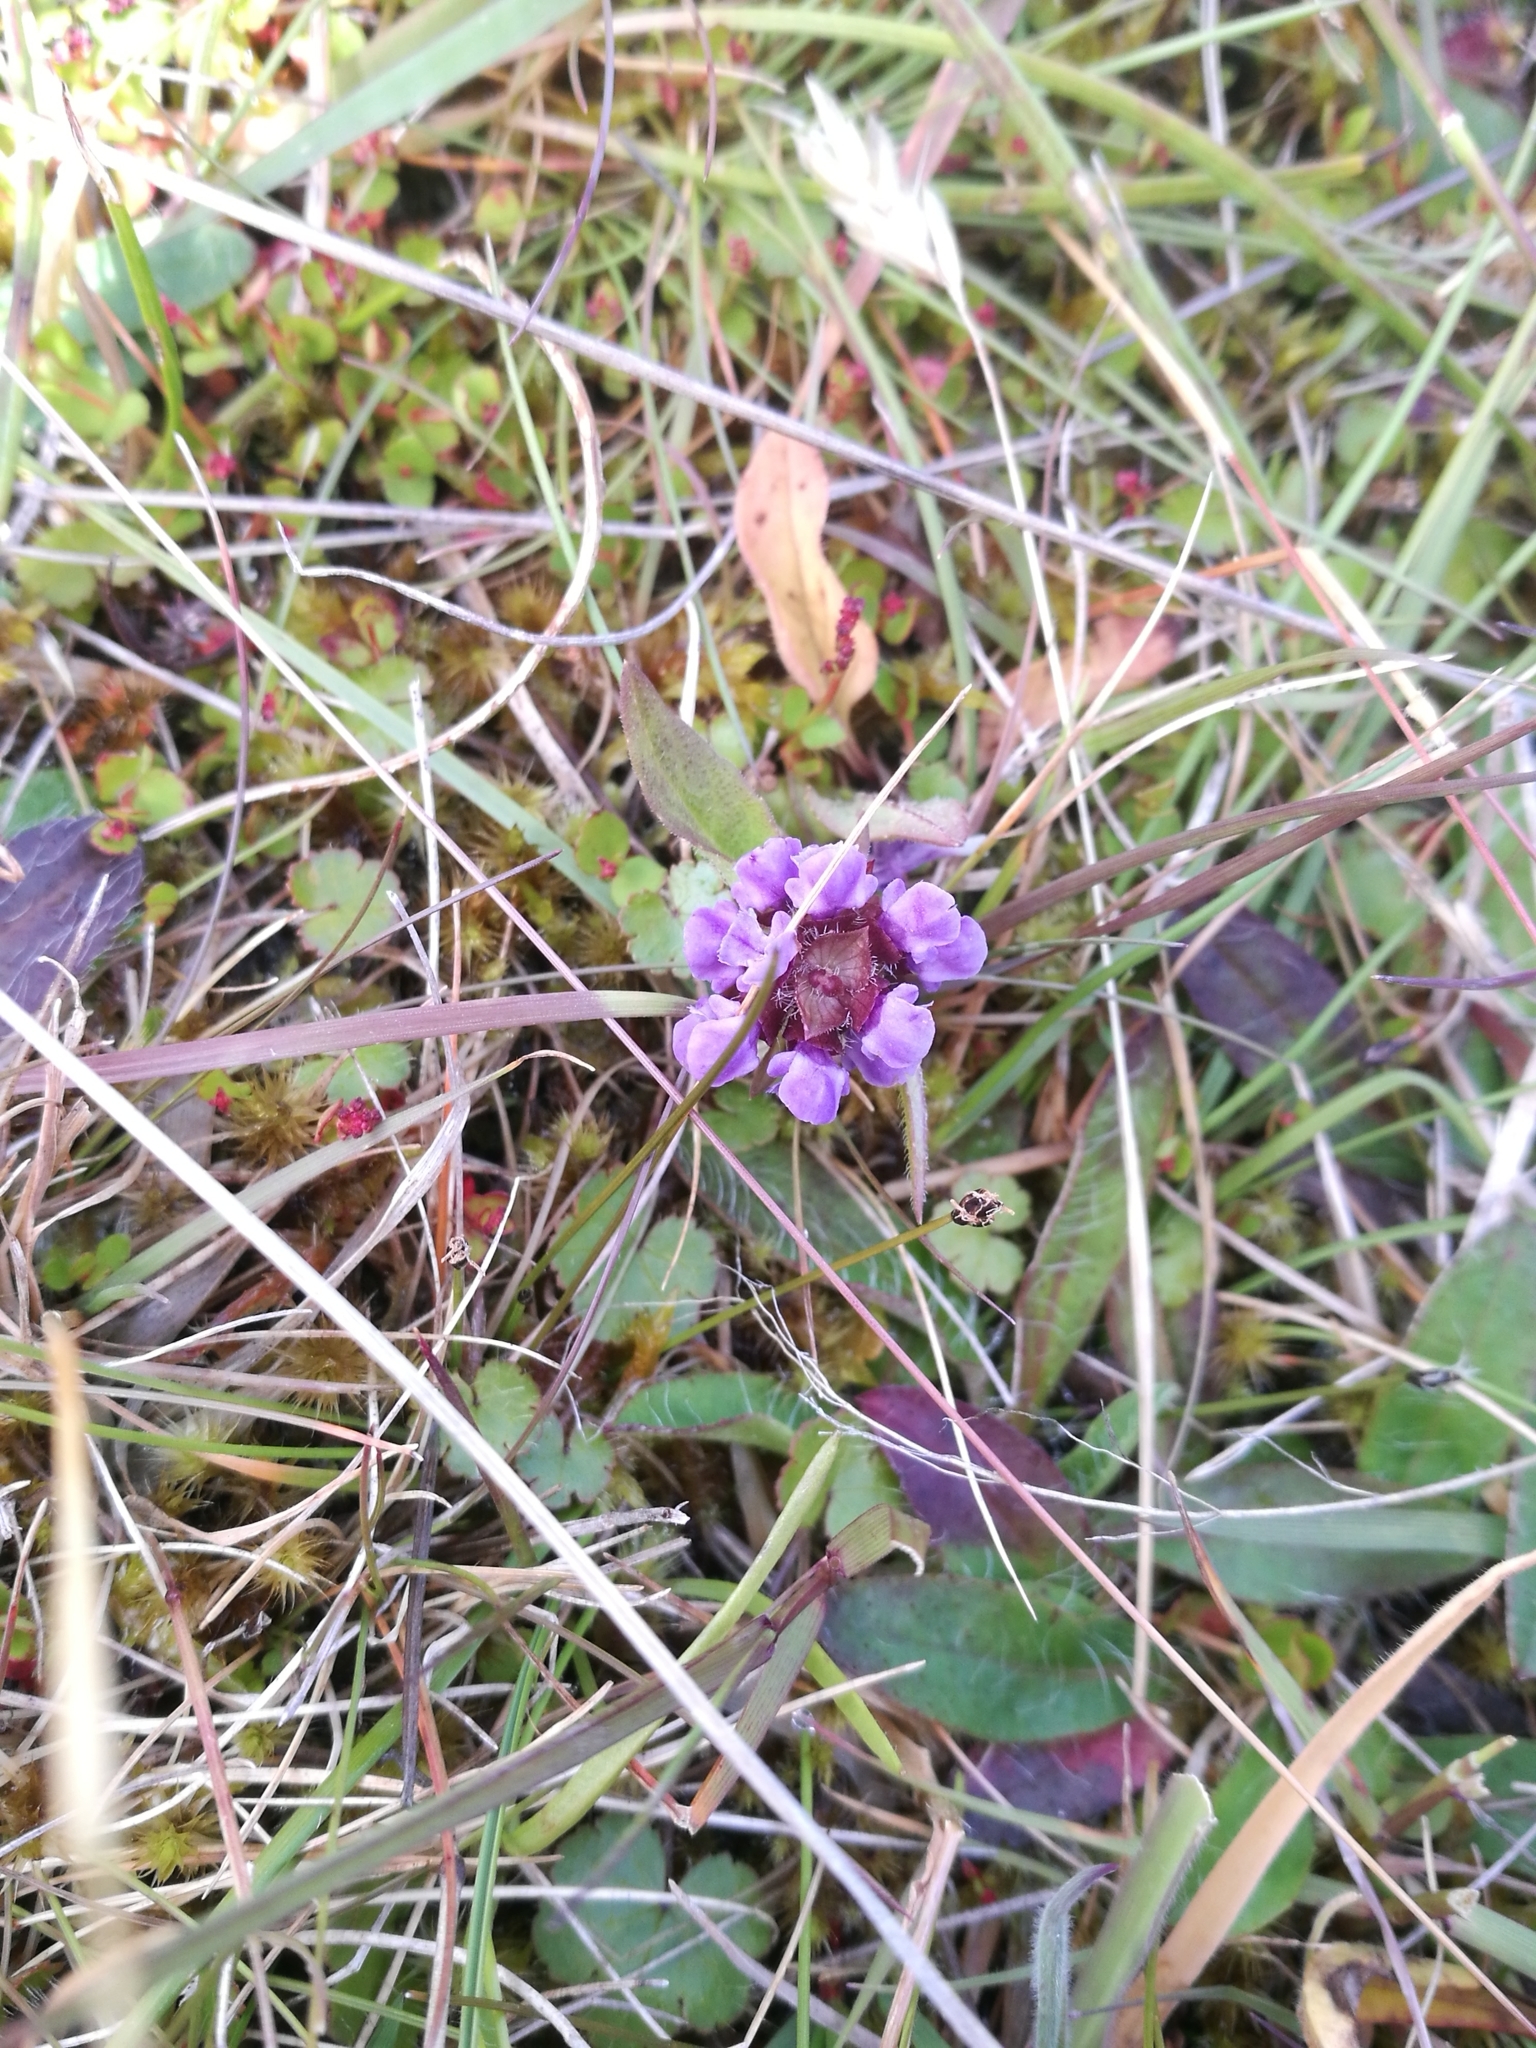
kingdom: Plantae
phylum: Tracheophyta
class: Magnoliopsida
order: Lamiales
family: Lamiaceae
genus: Prunella
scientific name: Prunella vulgaris
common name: Heal-all
